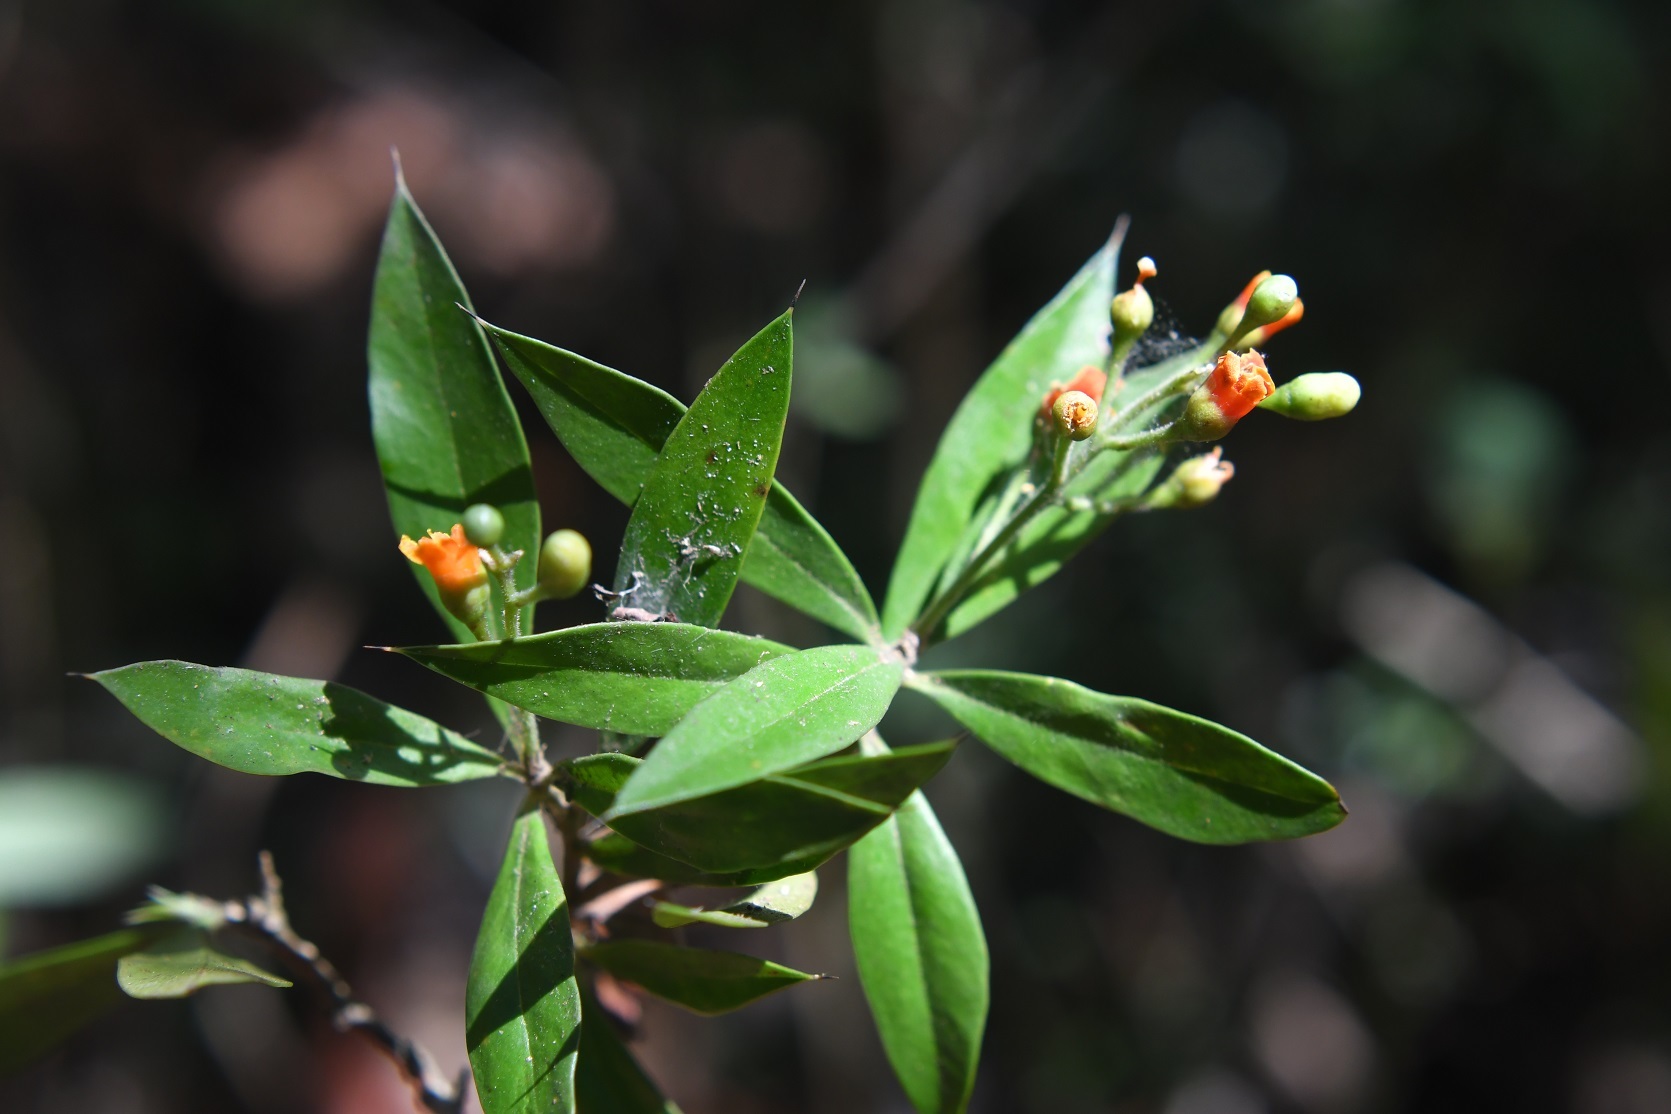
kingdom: Plantae
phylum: Tracheophyta
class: Magnoliopsida
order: Ericales
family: Primulaceae
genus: Bonellia
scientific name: Bonellia macrocarpa
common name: Primrose
